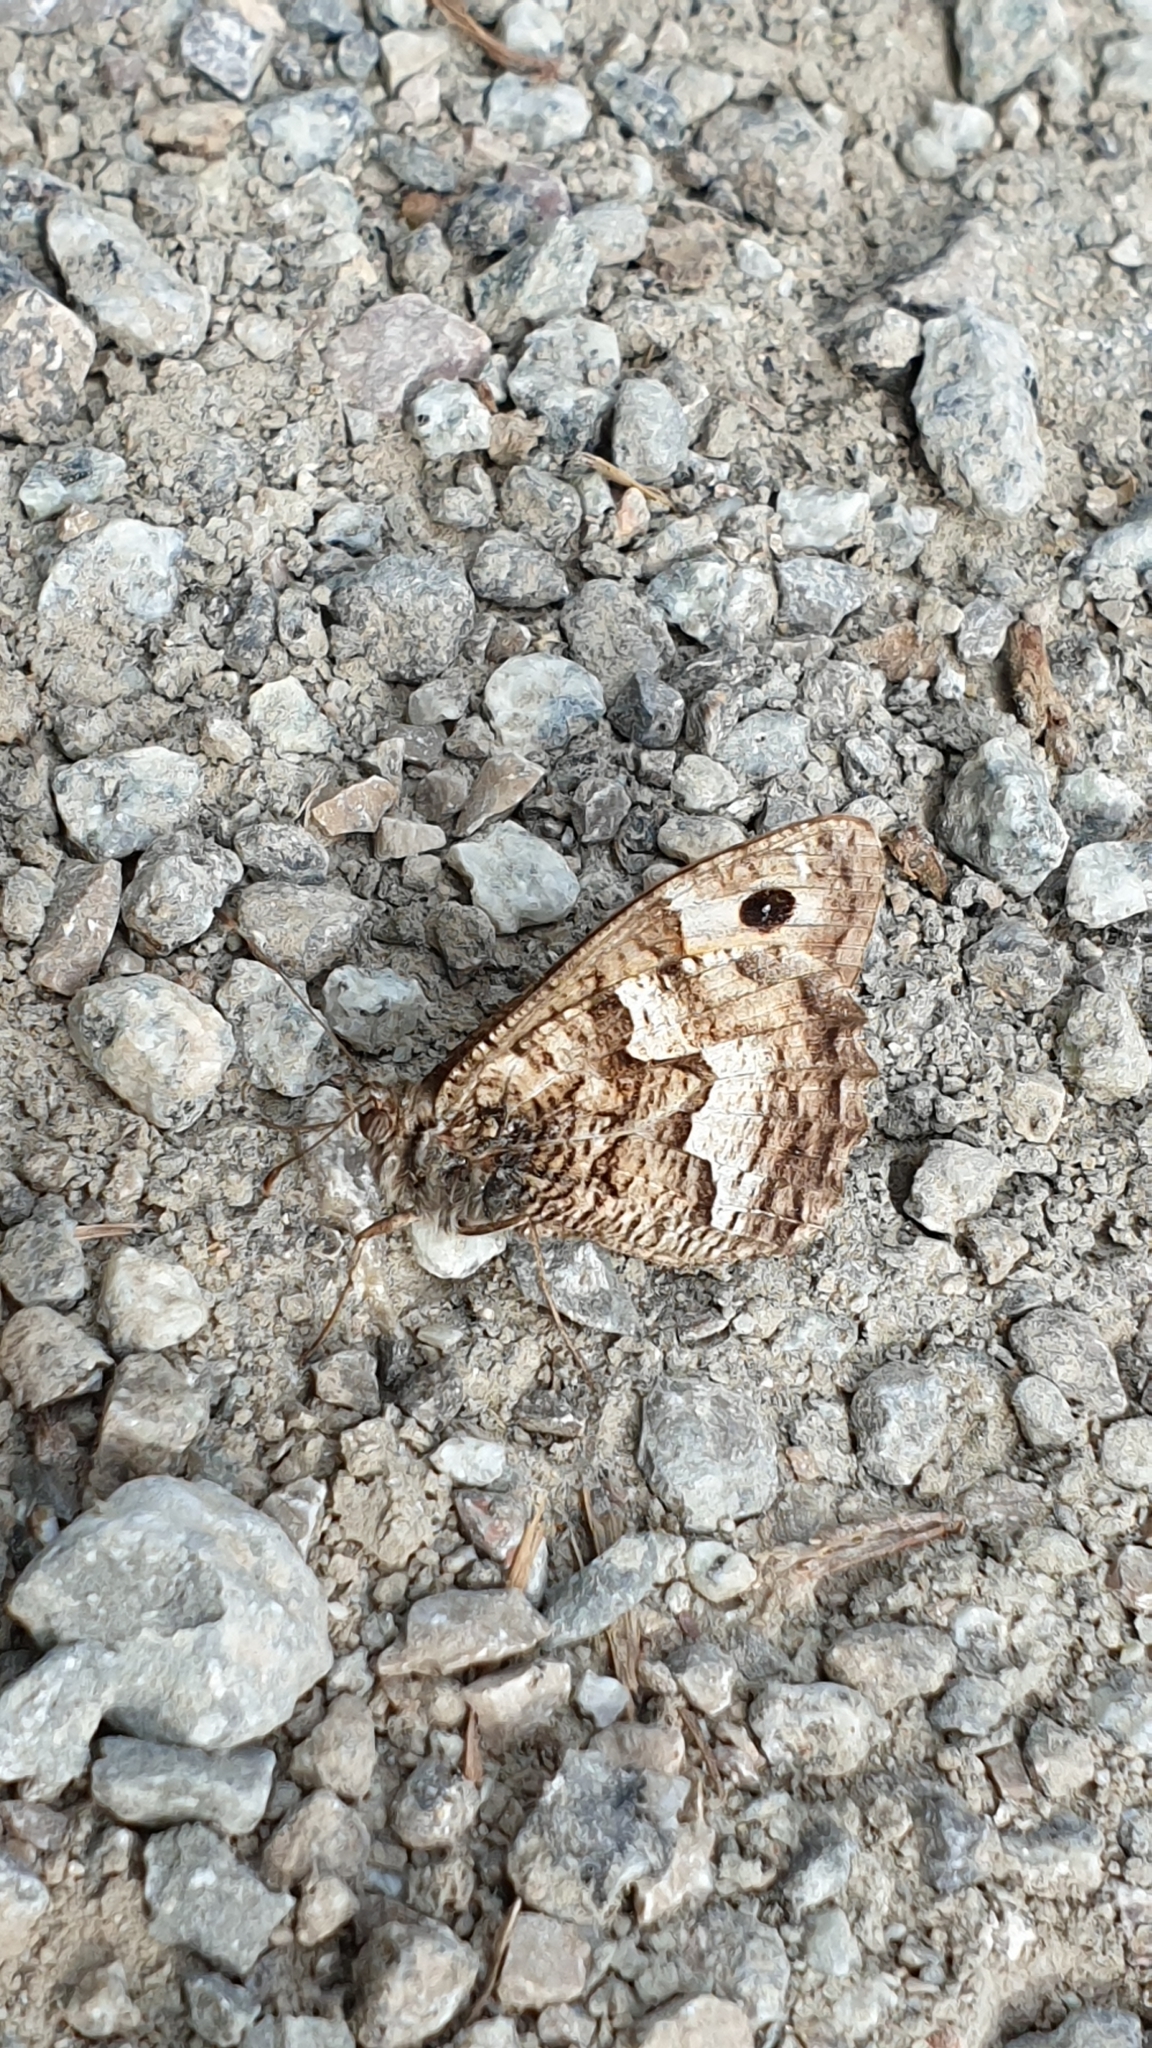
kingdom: Animalia
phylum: Arthropoda
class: Insecta
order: Lepidoptera
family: Nymphalidae
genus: Hipparchia
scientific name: Hipparchia semele
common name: Grayling
